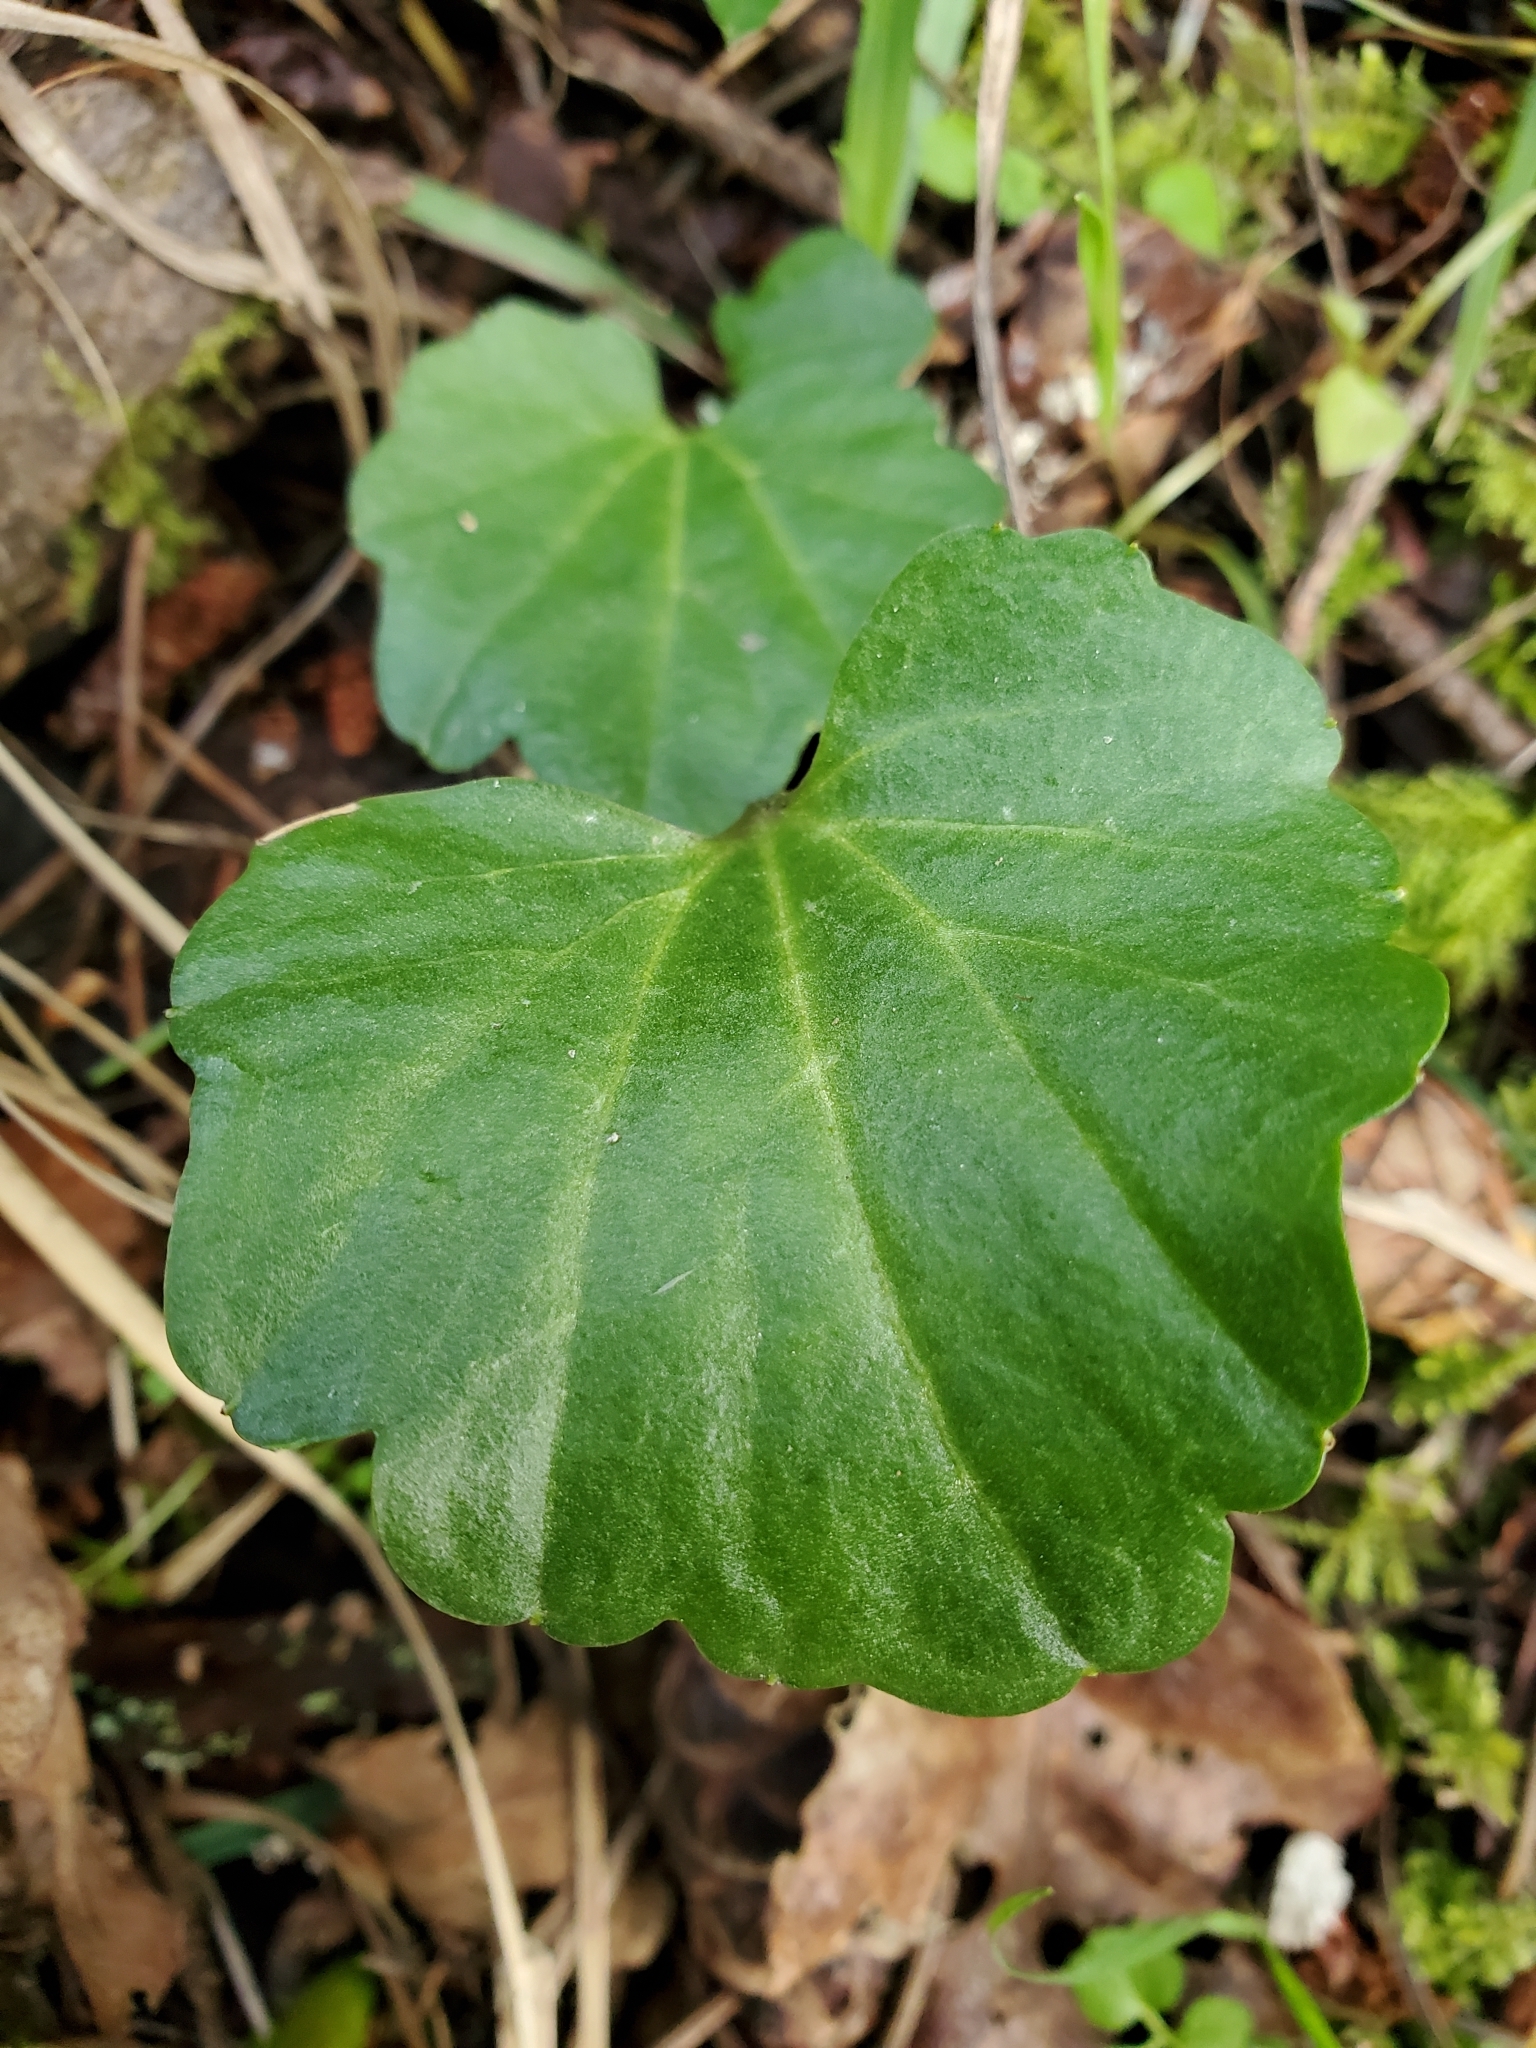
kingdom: Plantae
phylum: Tracheophyta
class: Magnoliopsida
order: Brassicales
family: Brassicaceae
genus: Cardamine
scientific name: Cardamine nuttallii
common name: Nuttall's toothwort
